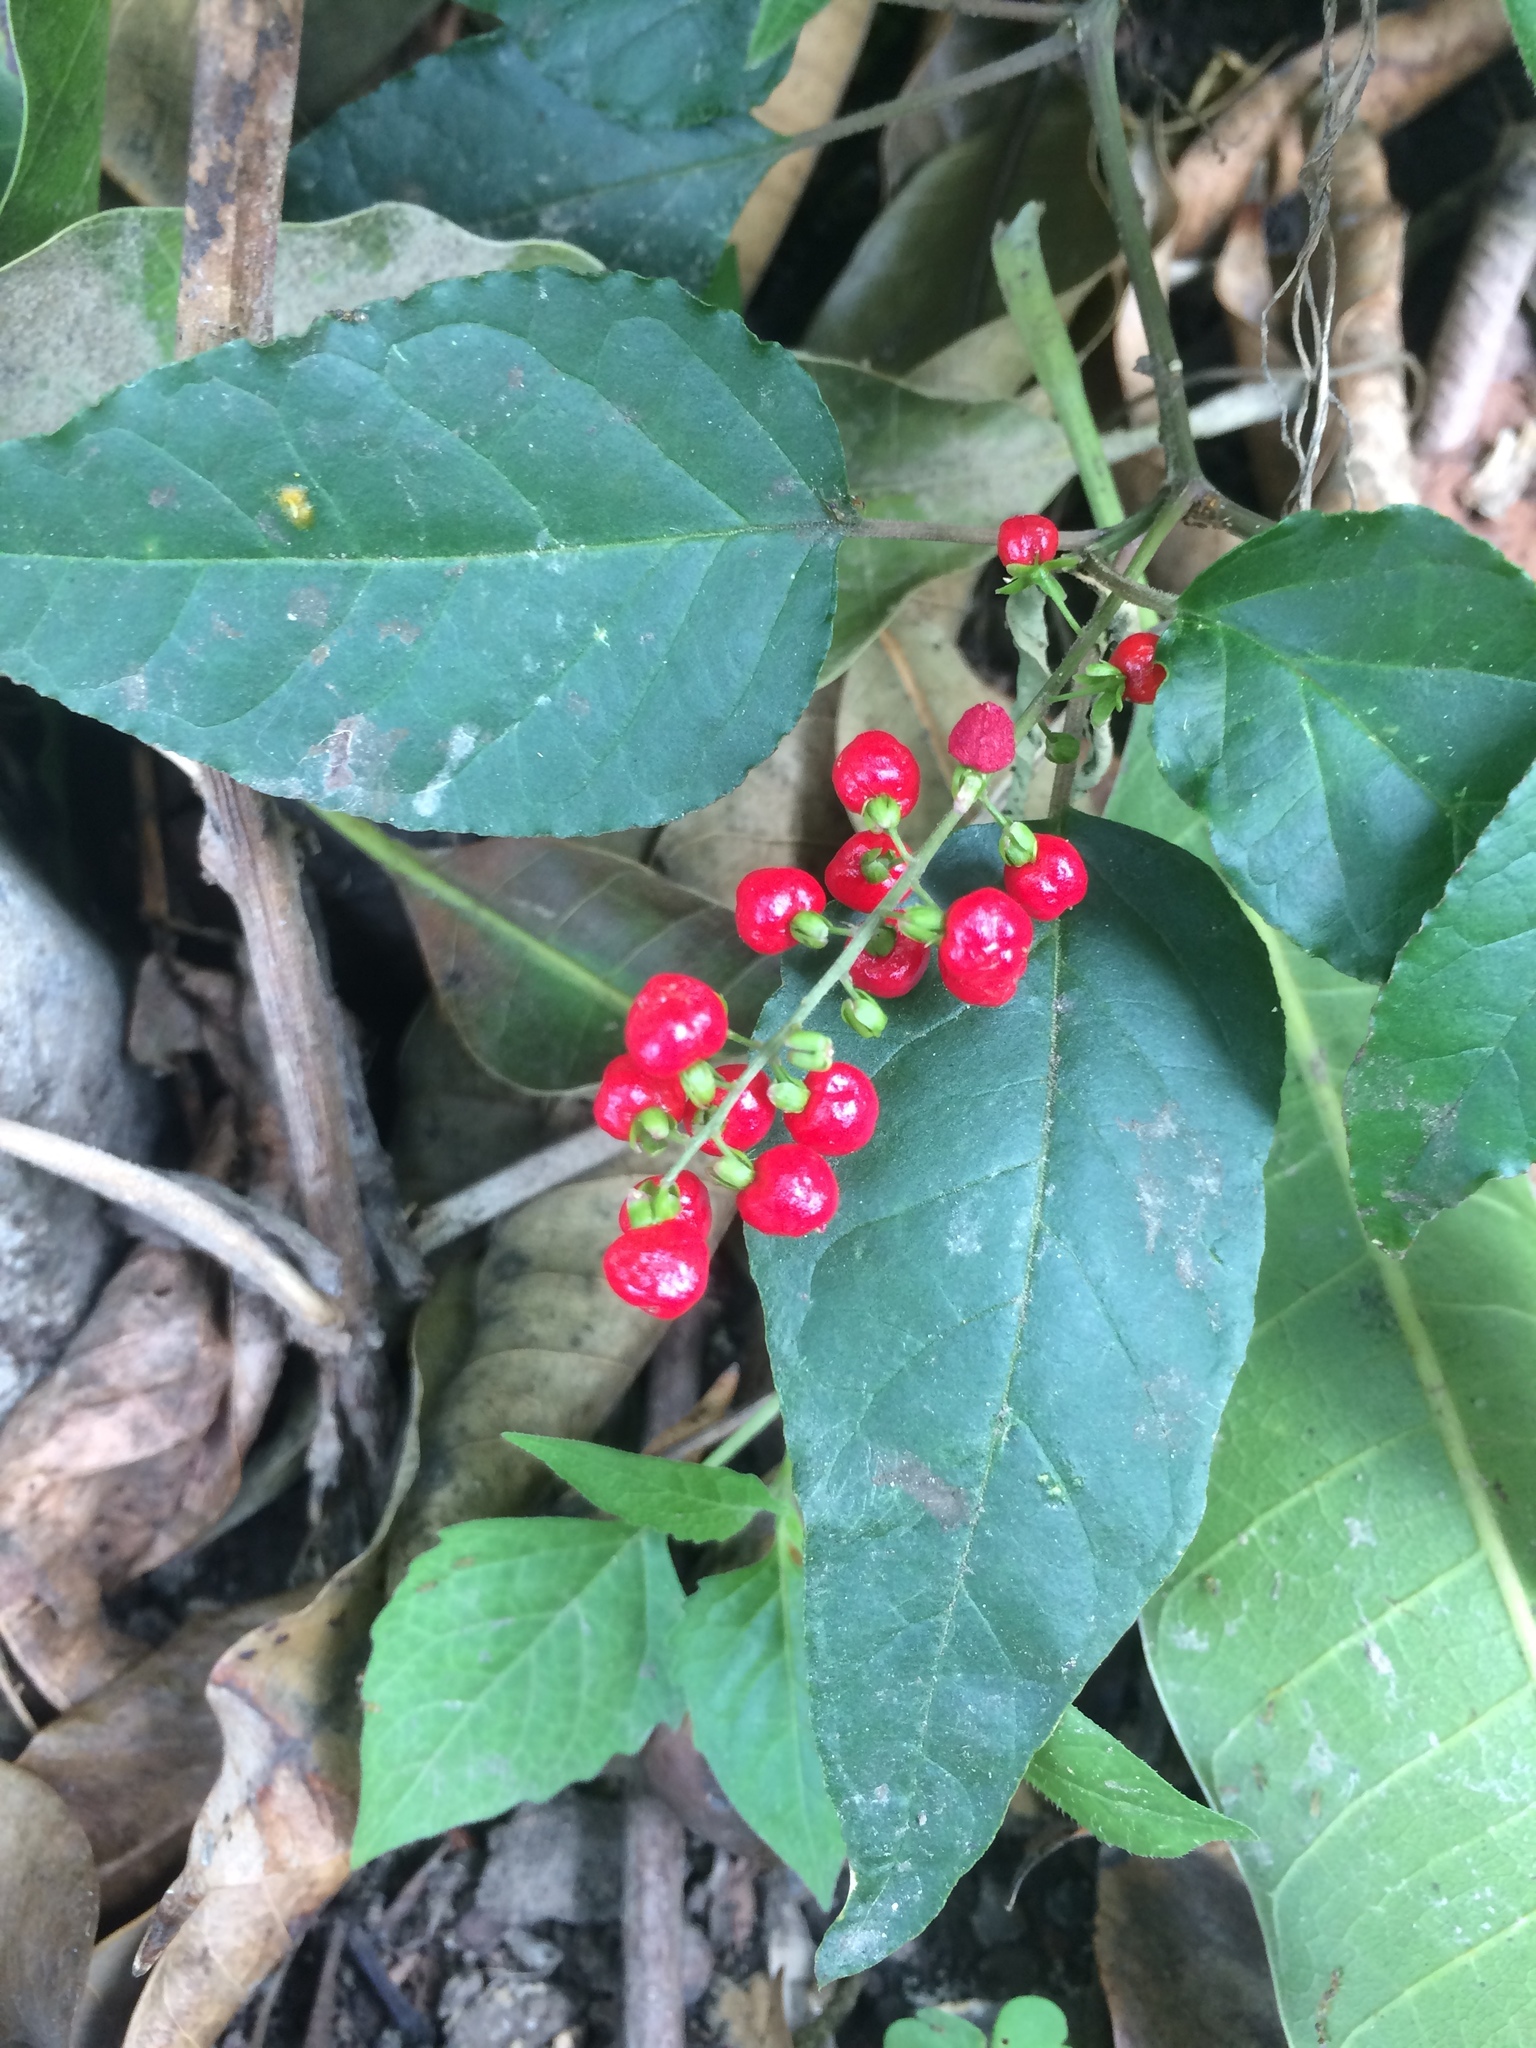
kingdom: Plantae
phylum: Tracheophyta
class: Magnoliopsida
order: Caryophyllales
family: Phytolaccaceae
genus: Rivina
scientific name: Rivina humilis
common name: Rougeplant
